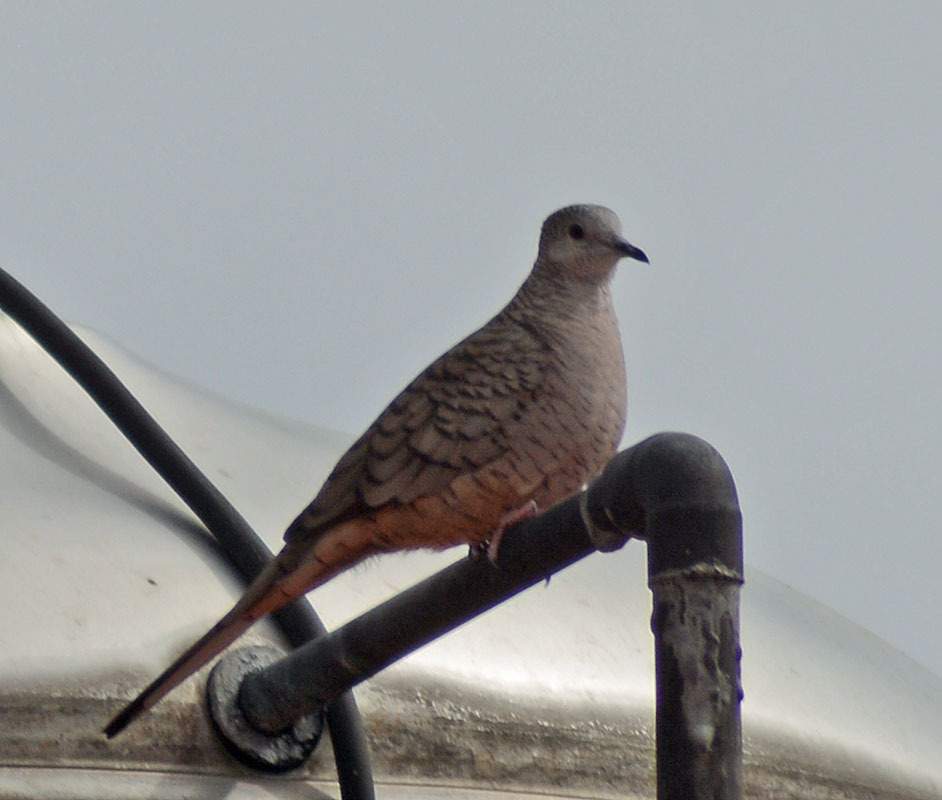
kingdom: Animalia
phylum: Chordata
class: Aves
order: Columbiformes
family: Columbidae
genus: Columbina
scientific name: Columbina inca
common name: Inca dove
